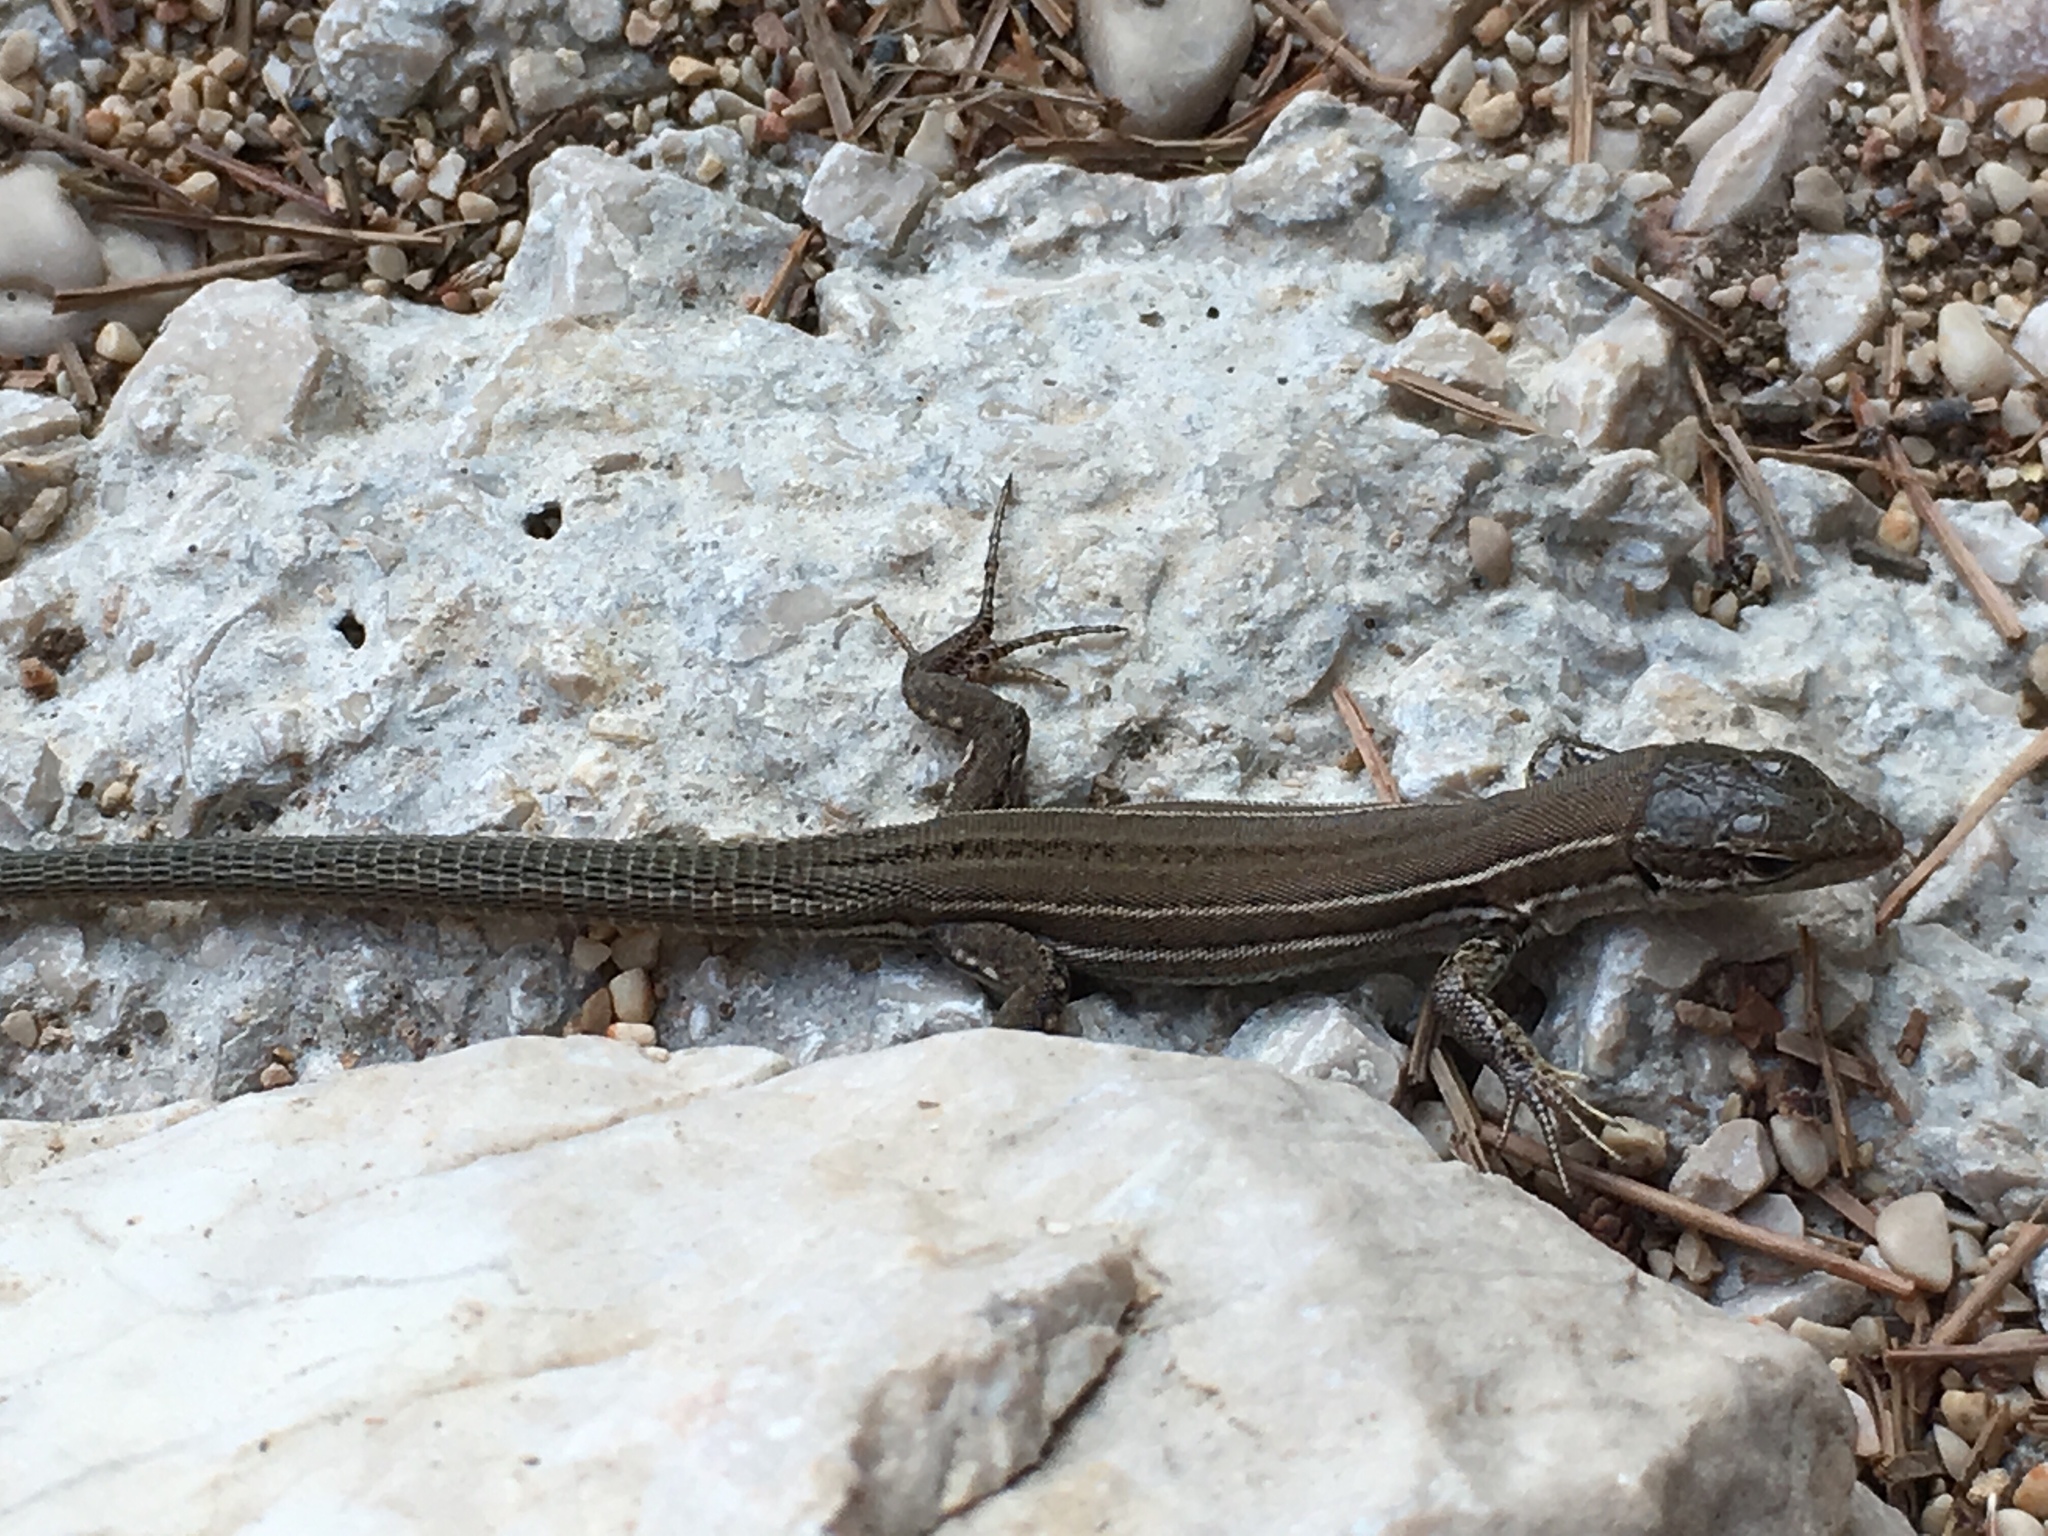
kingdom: Animalia
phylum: Chordata
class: Squamata
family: Lacertidae
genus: Podarcis
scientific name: Podarcis melisellensis
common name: Dalmatian wall lizard
